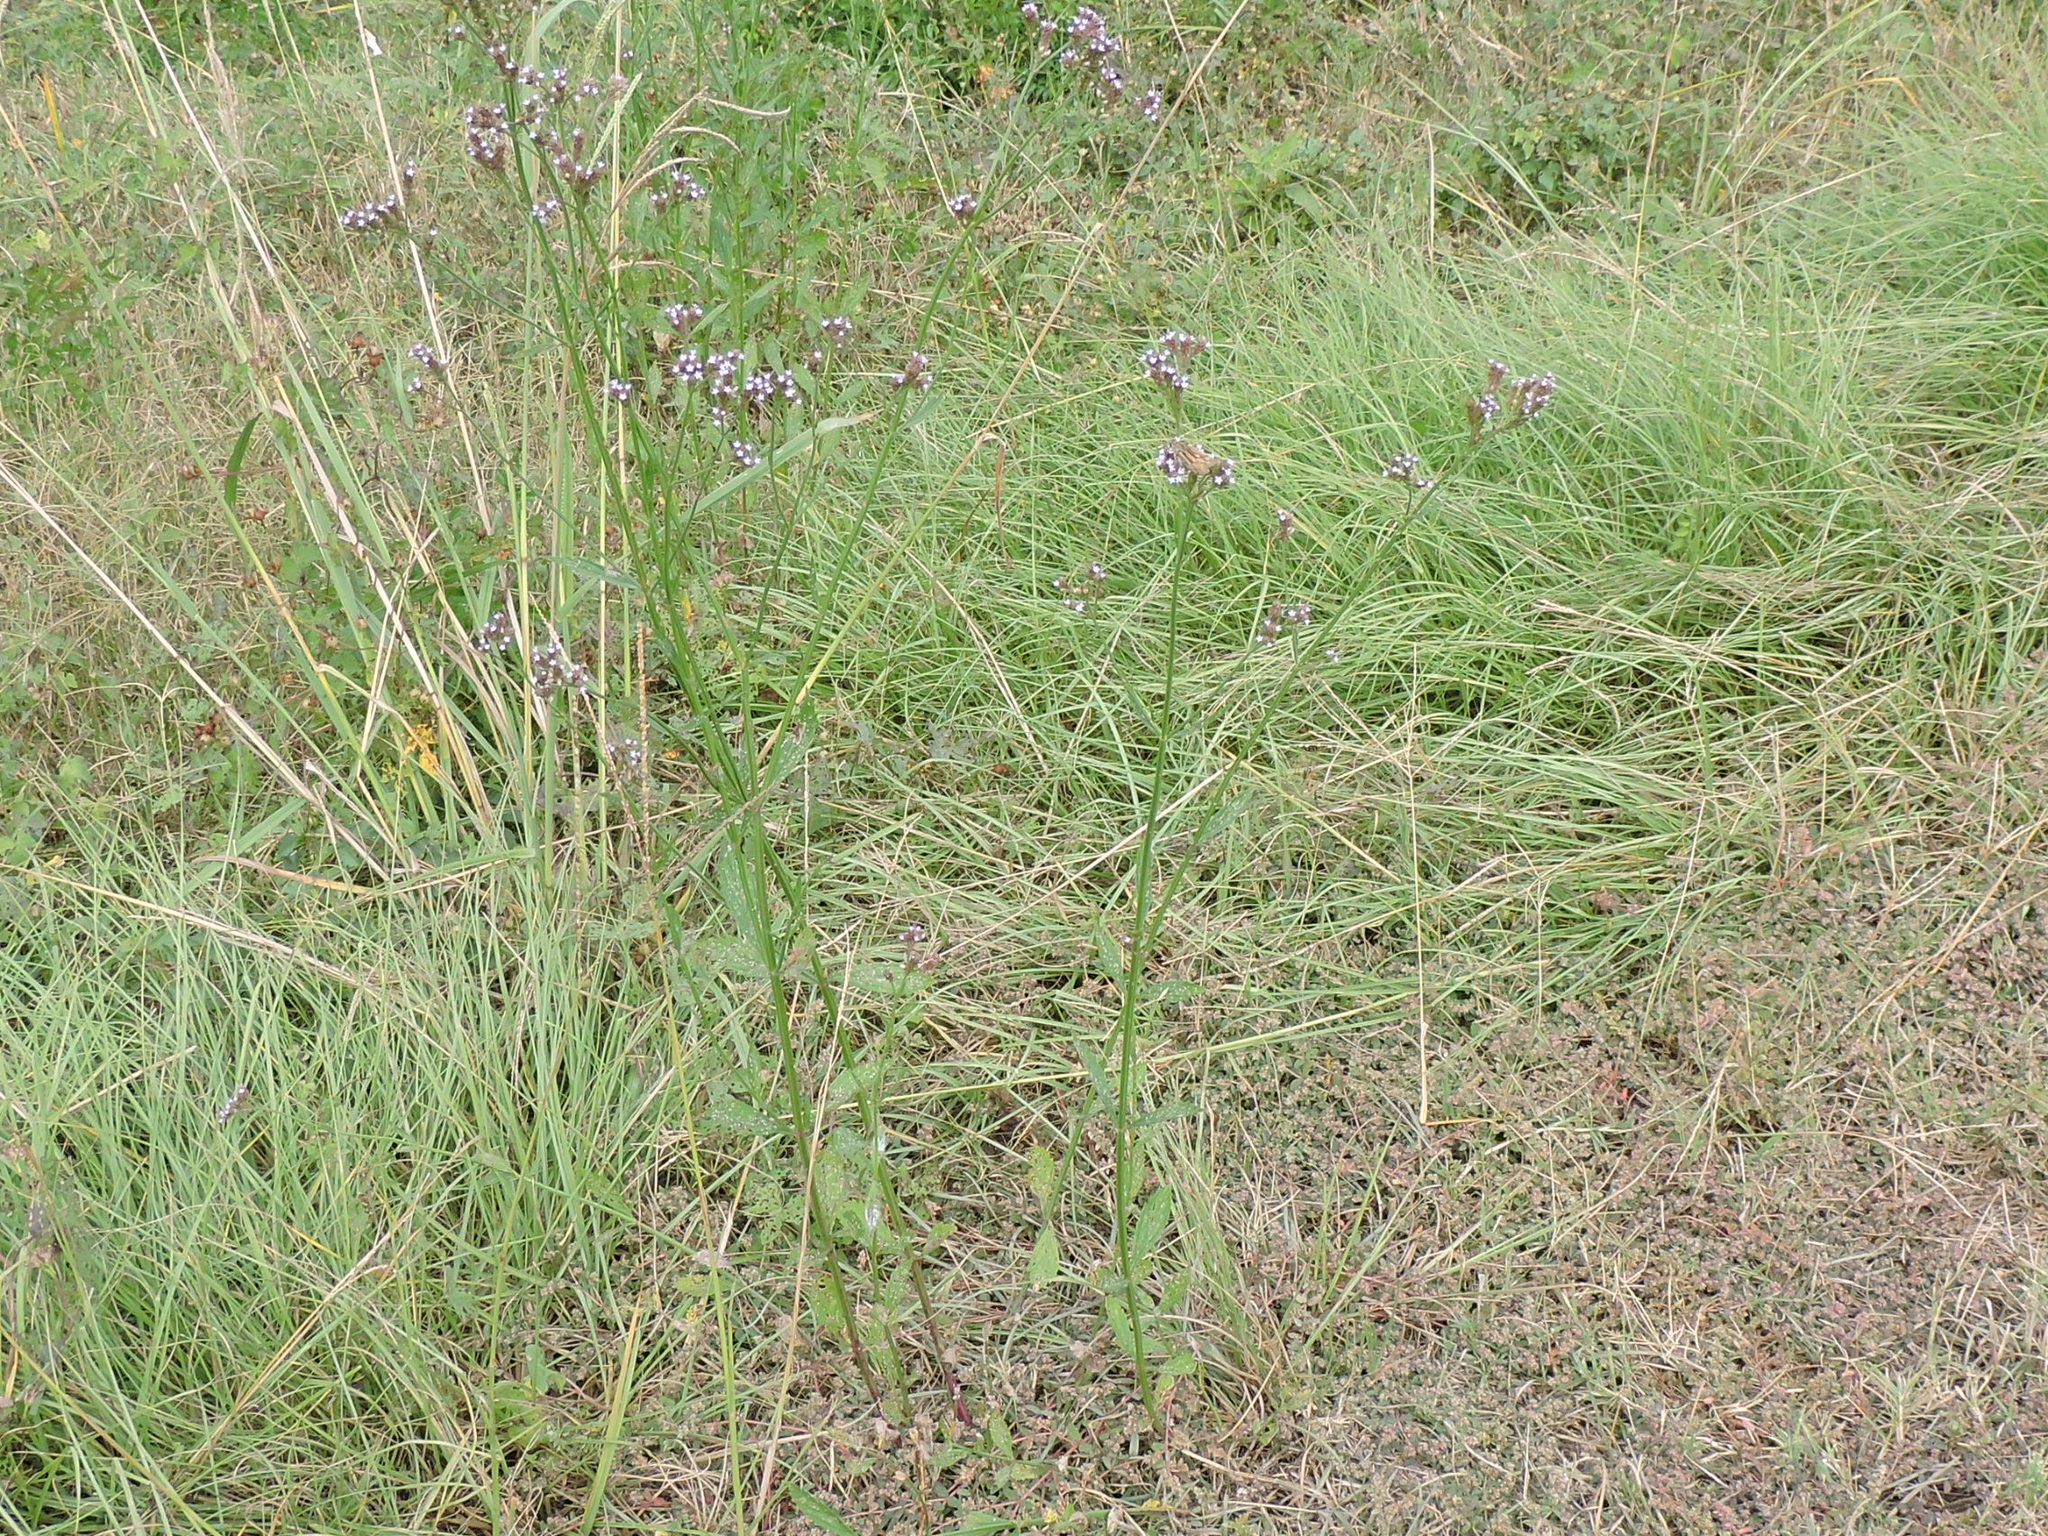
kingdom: Plantae
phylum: Tracheophyta
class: Magnoliopsida
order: Lamiales
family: Verbenaceae
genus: Verbena
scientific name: Verbena brasiliensis
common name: Brazilian vervain
